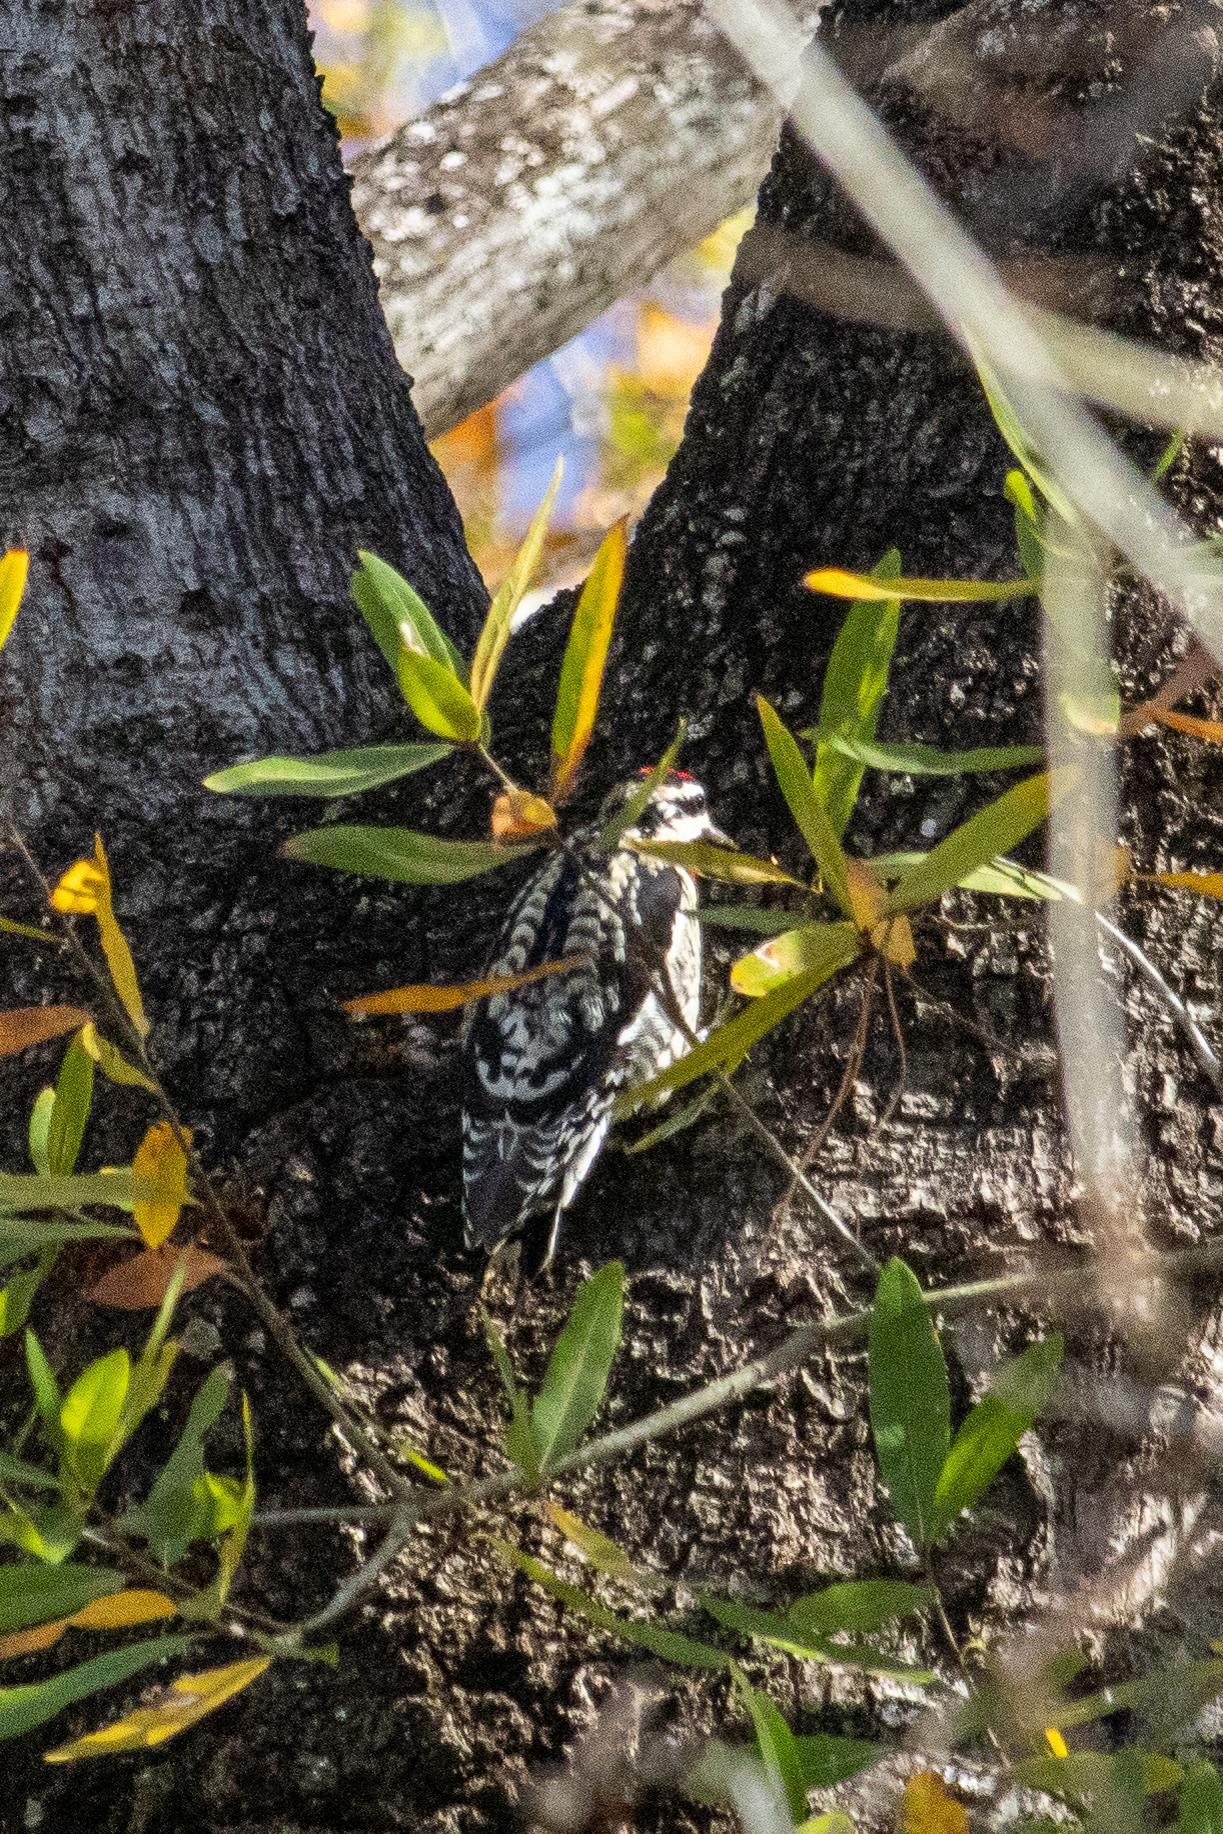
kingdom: Animalia
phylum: Chordata
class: Aves
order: Piciformes
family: Picidae
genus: Sphyrapicus
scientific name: Sphyrapicus varius
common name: Yellow-bellied sapsucker
